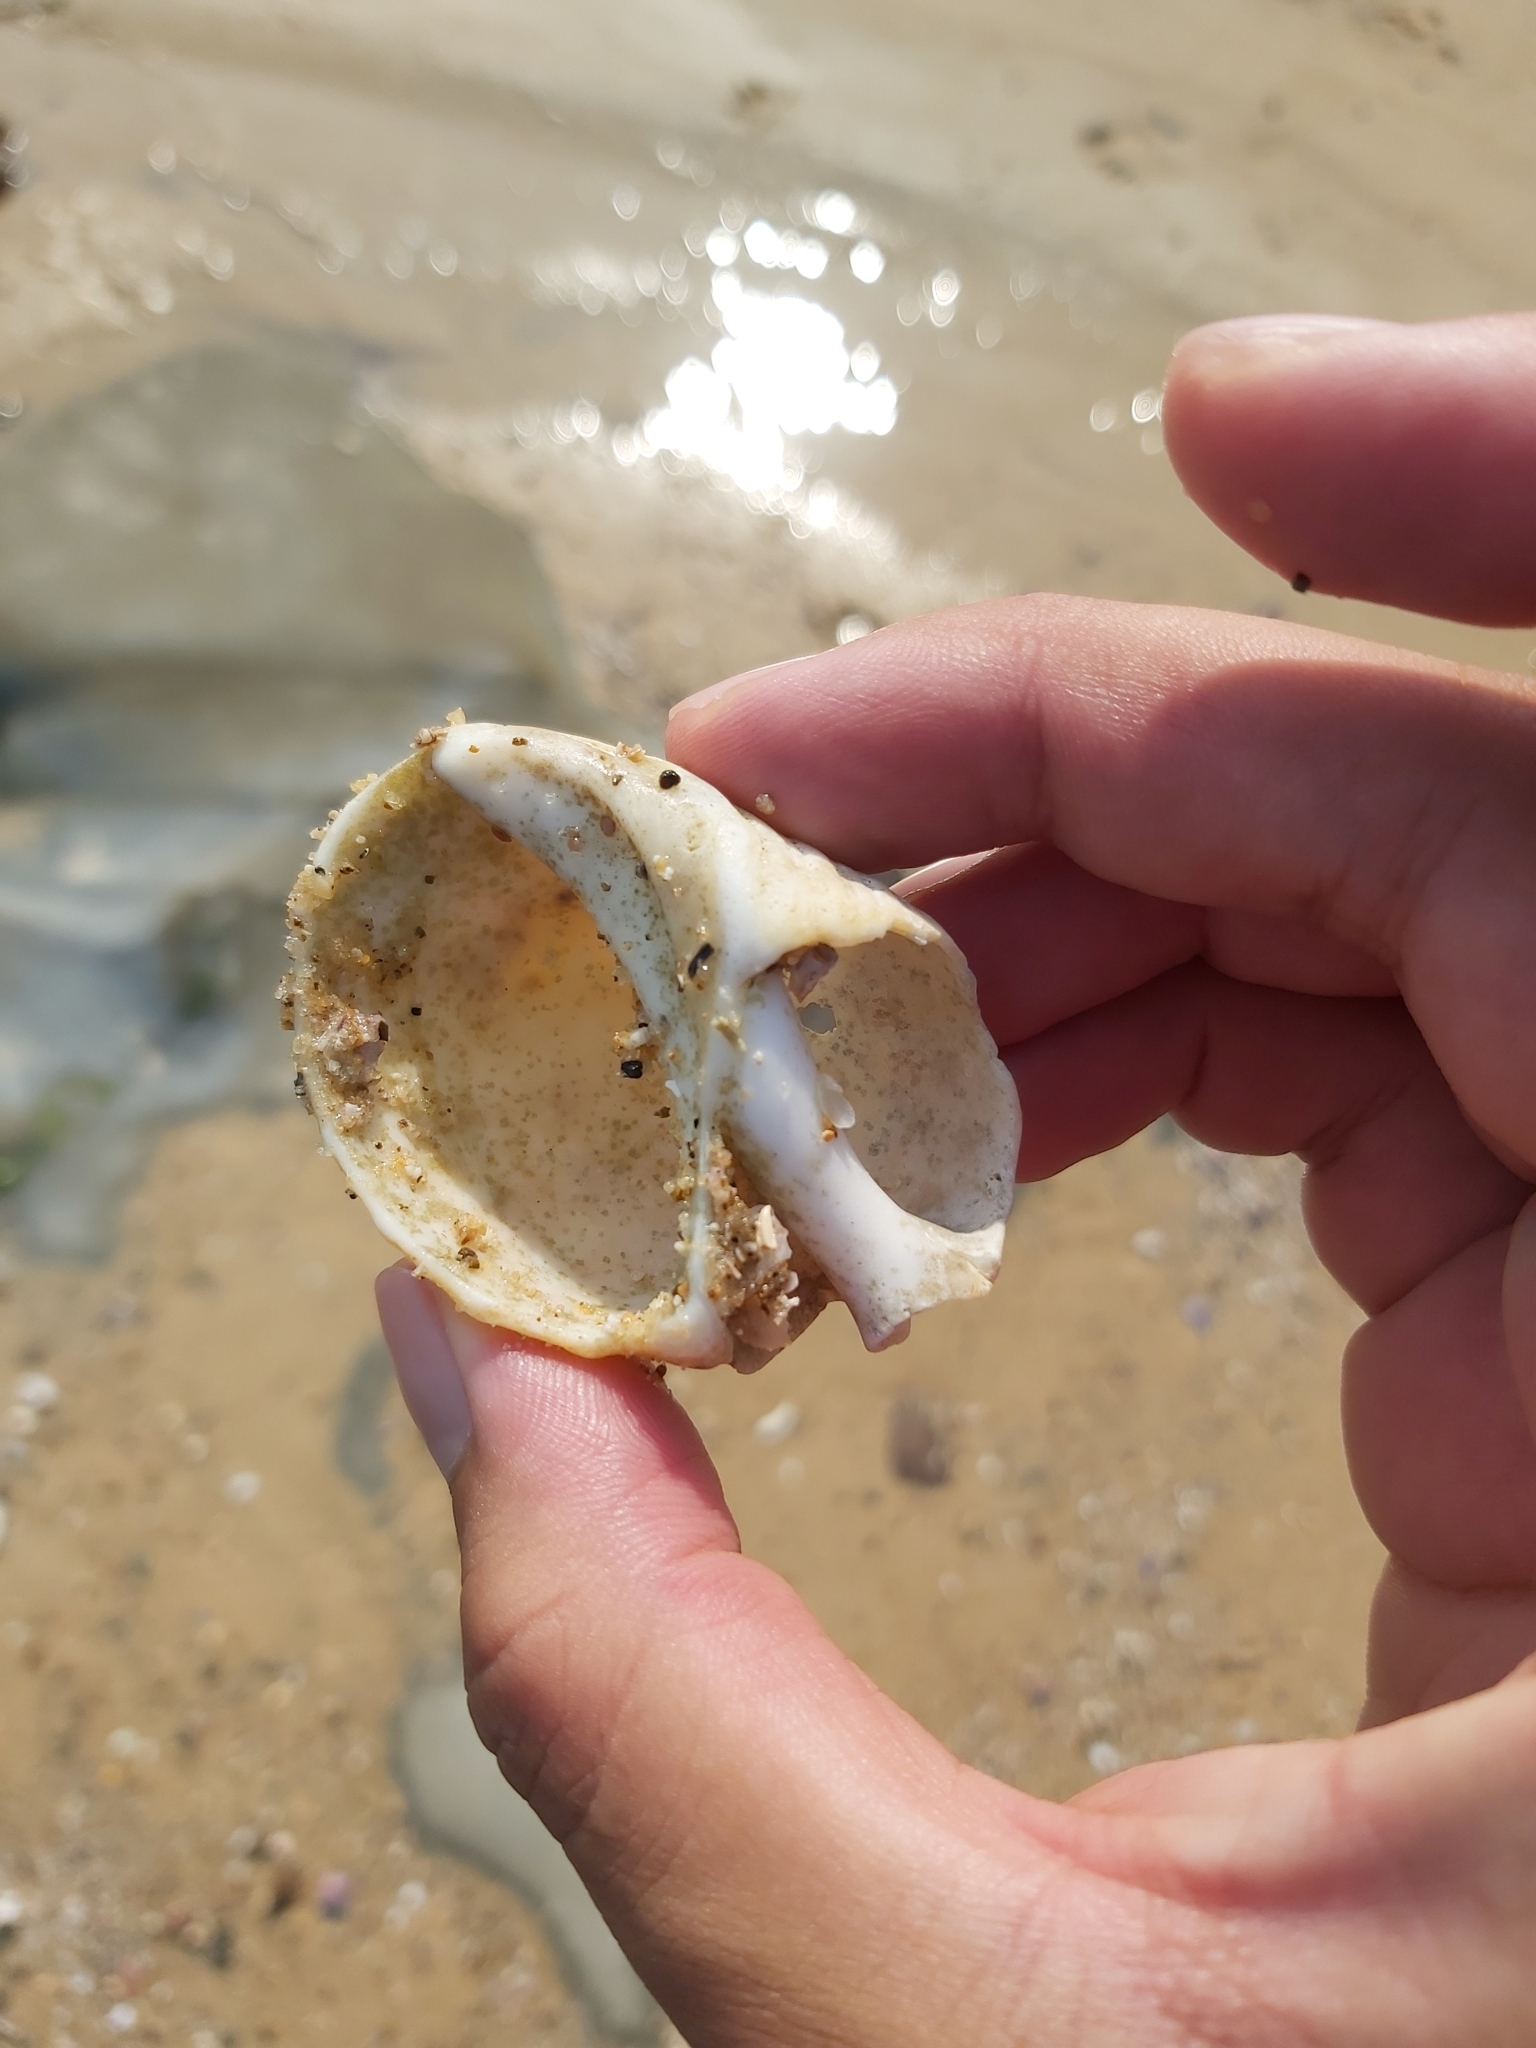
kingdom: Animalia
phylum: Mollusca
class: Gastropoda
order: Neogastropoda
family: Muricidae
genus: Dicathais
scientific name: Dicathais orbita
